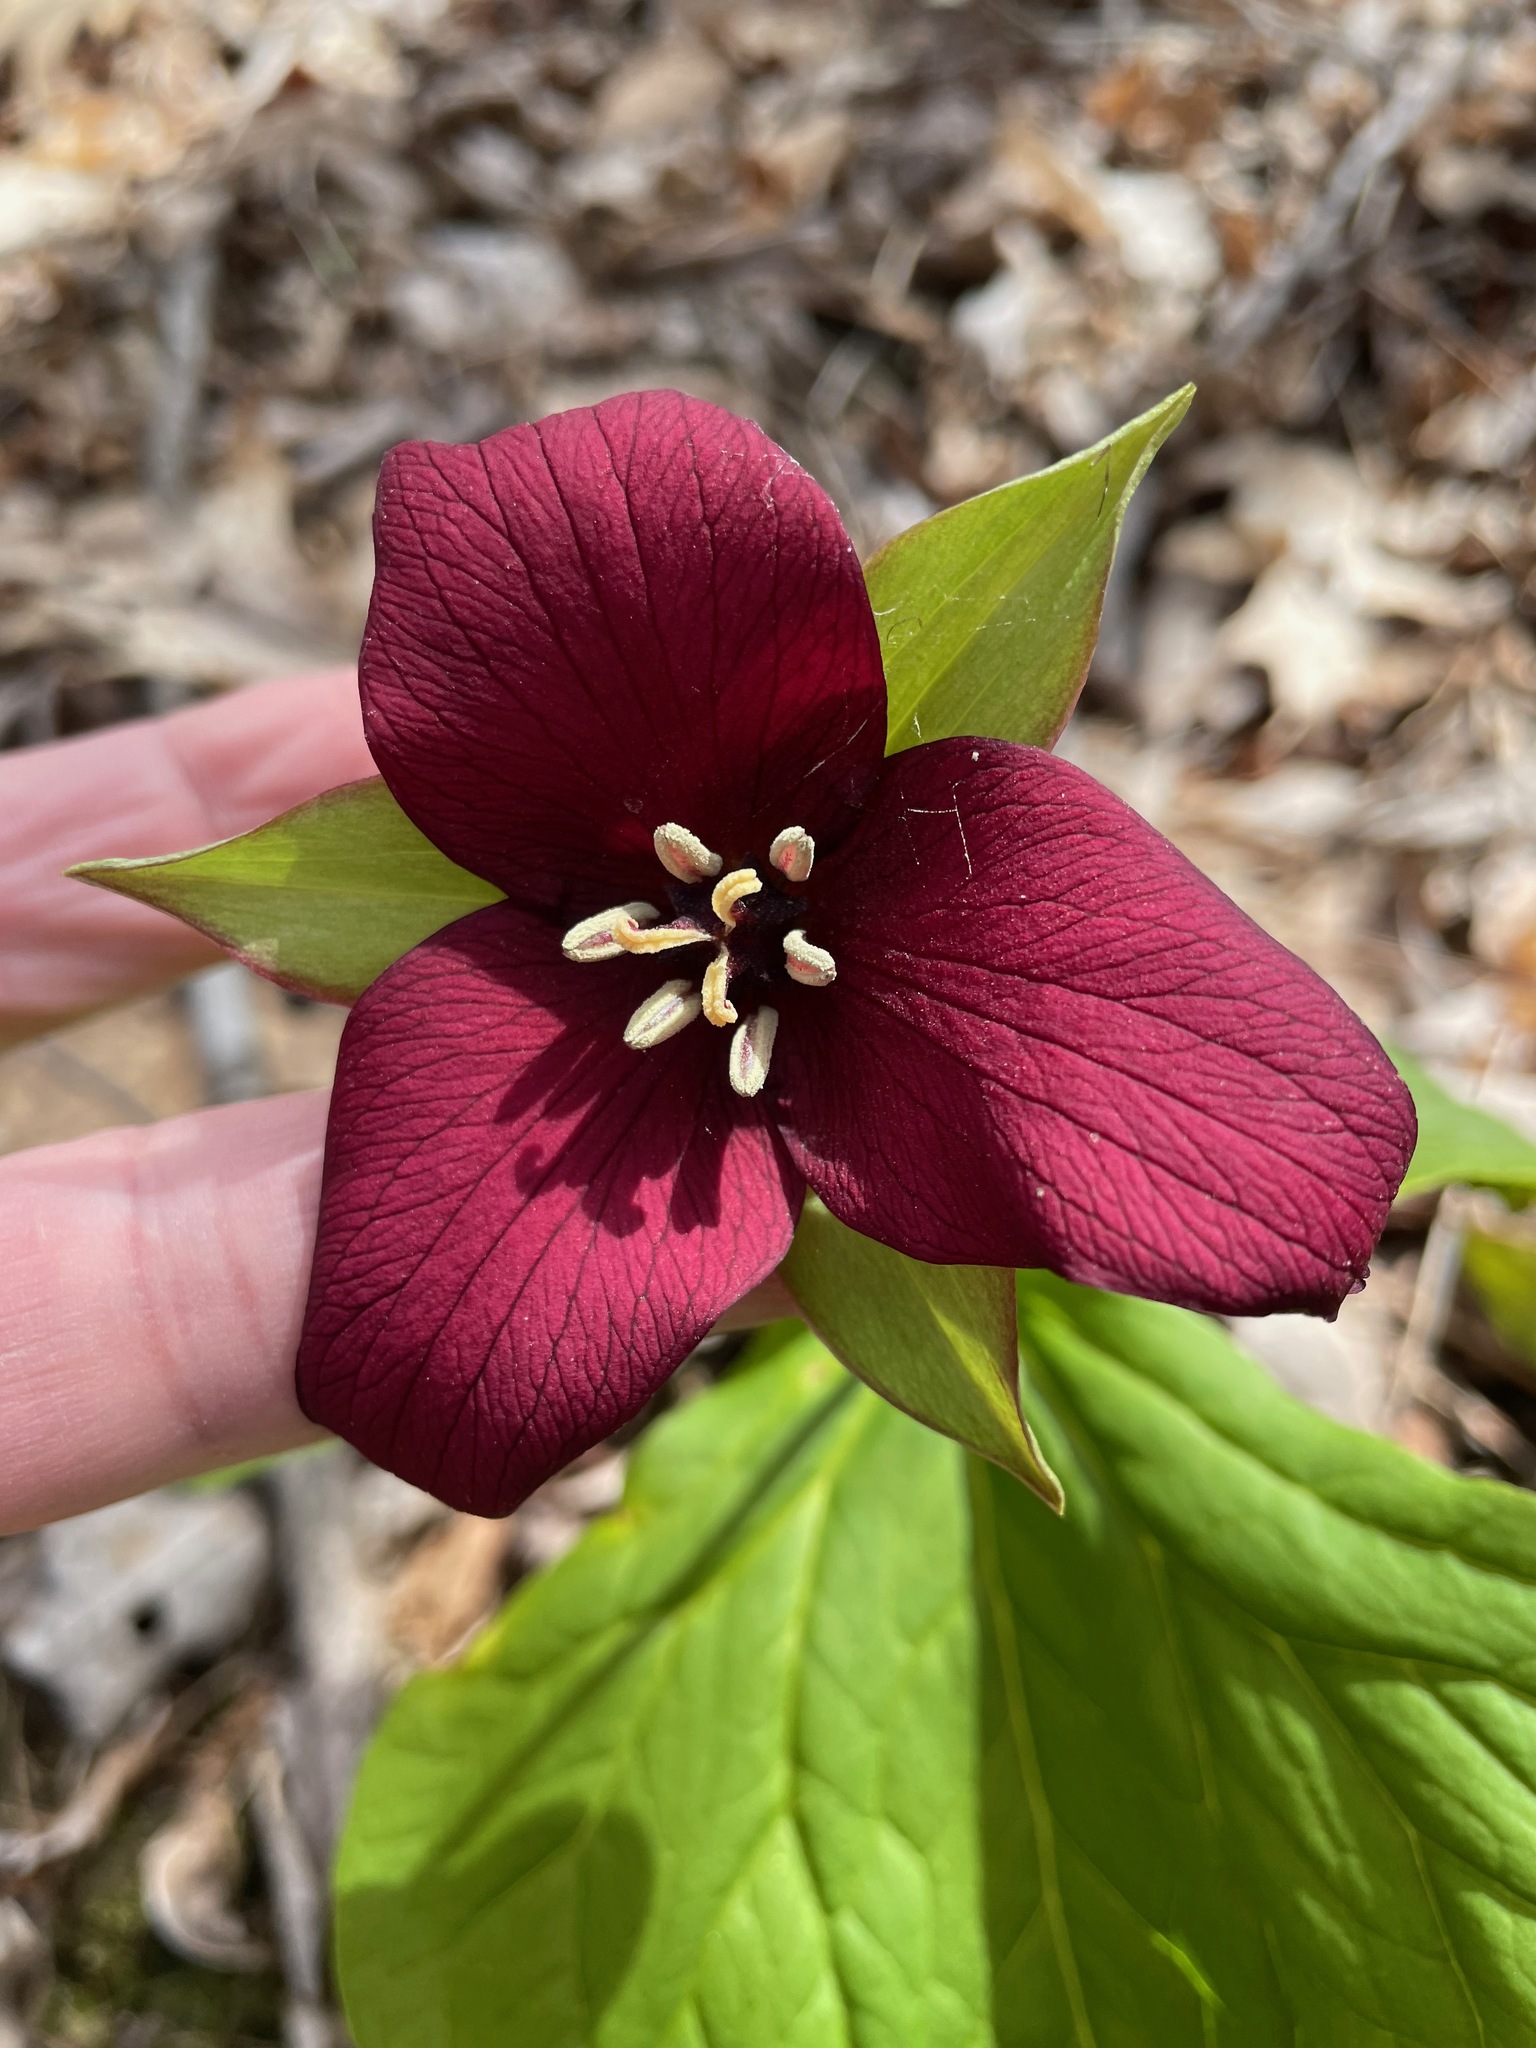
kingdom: Plantae
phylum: Tracheophyta
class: Liliopsida
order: Liliales
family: Melanthiaceae
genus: Trillium
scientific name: Trillium erectum
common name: Purple trillium
